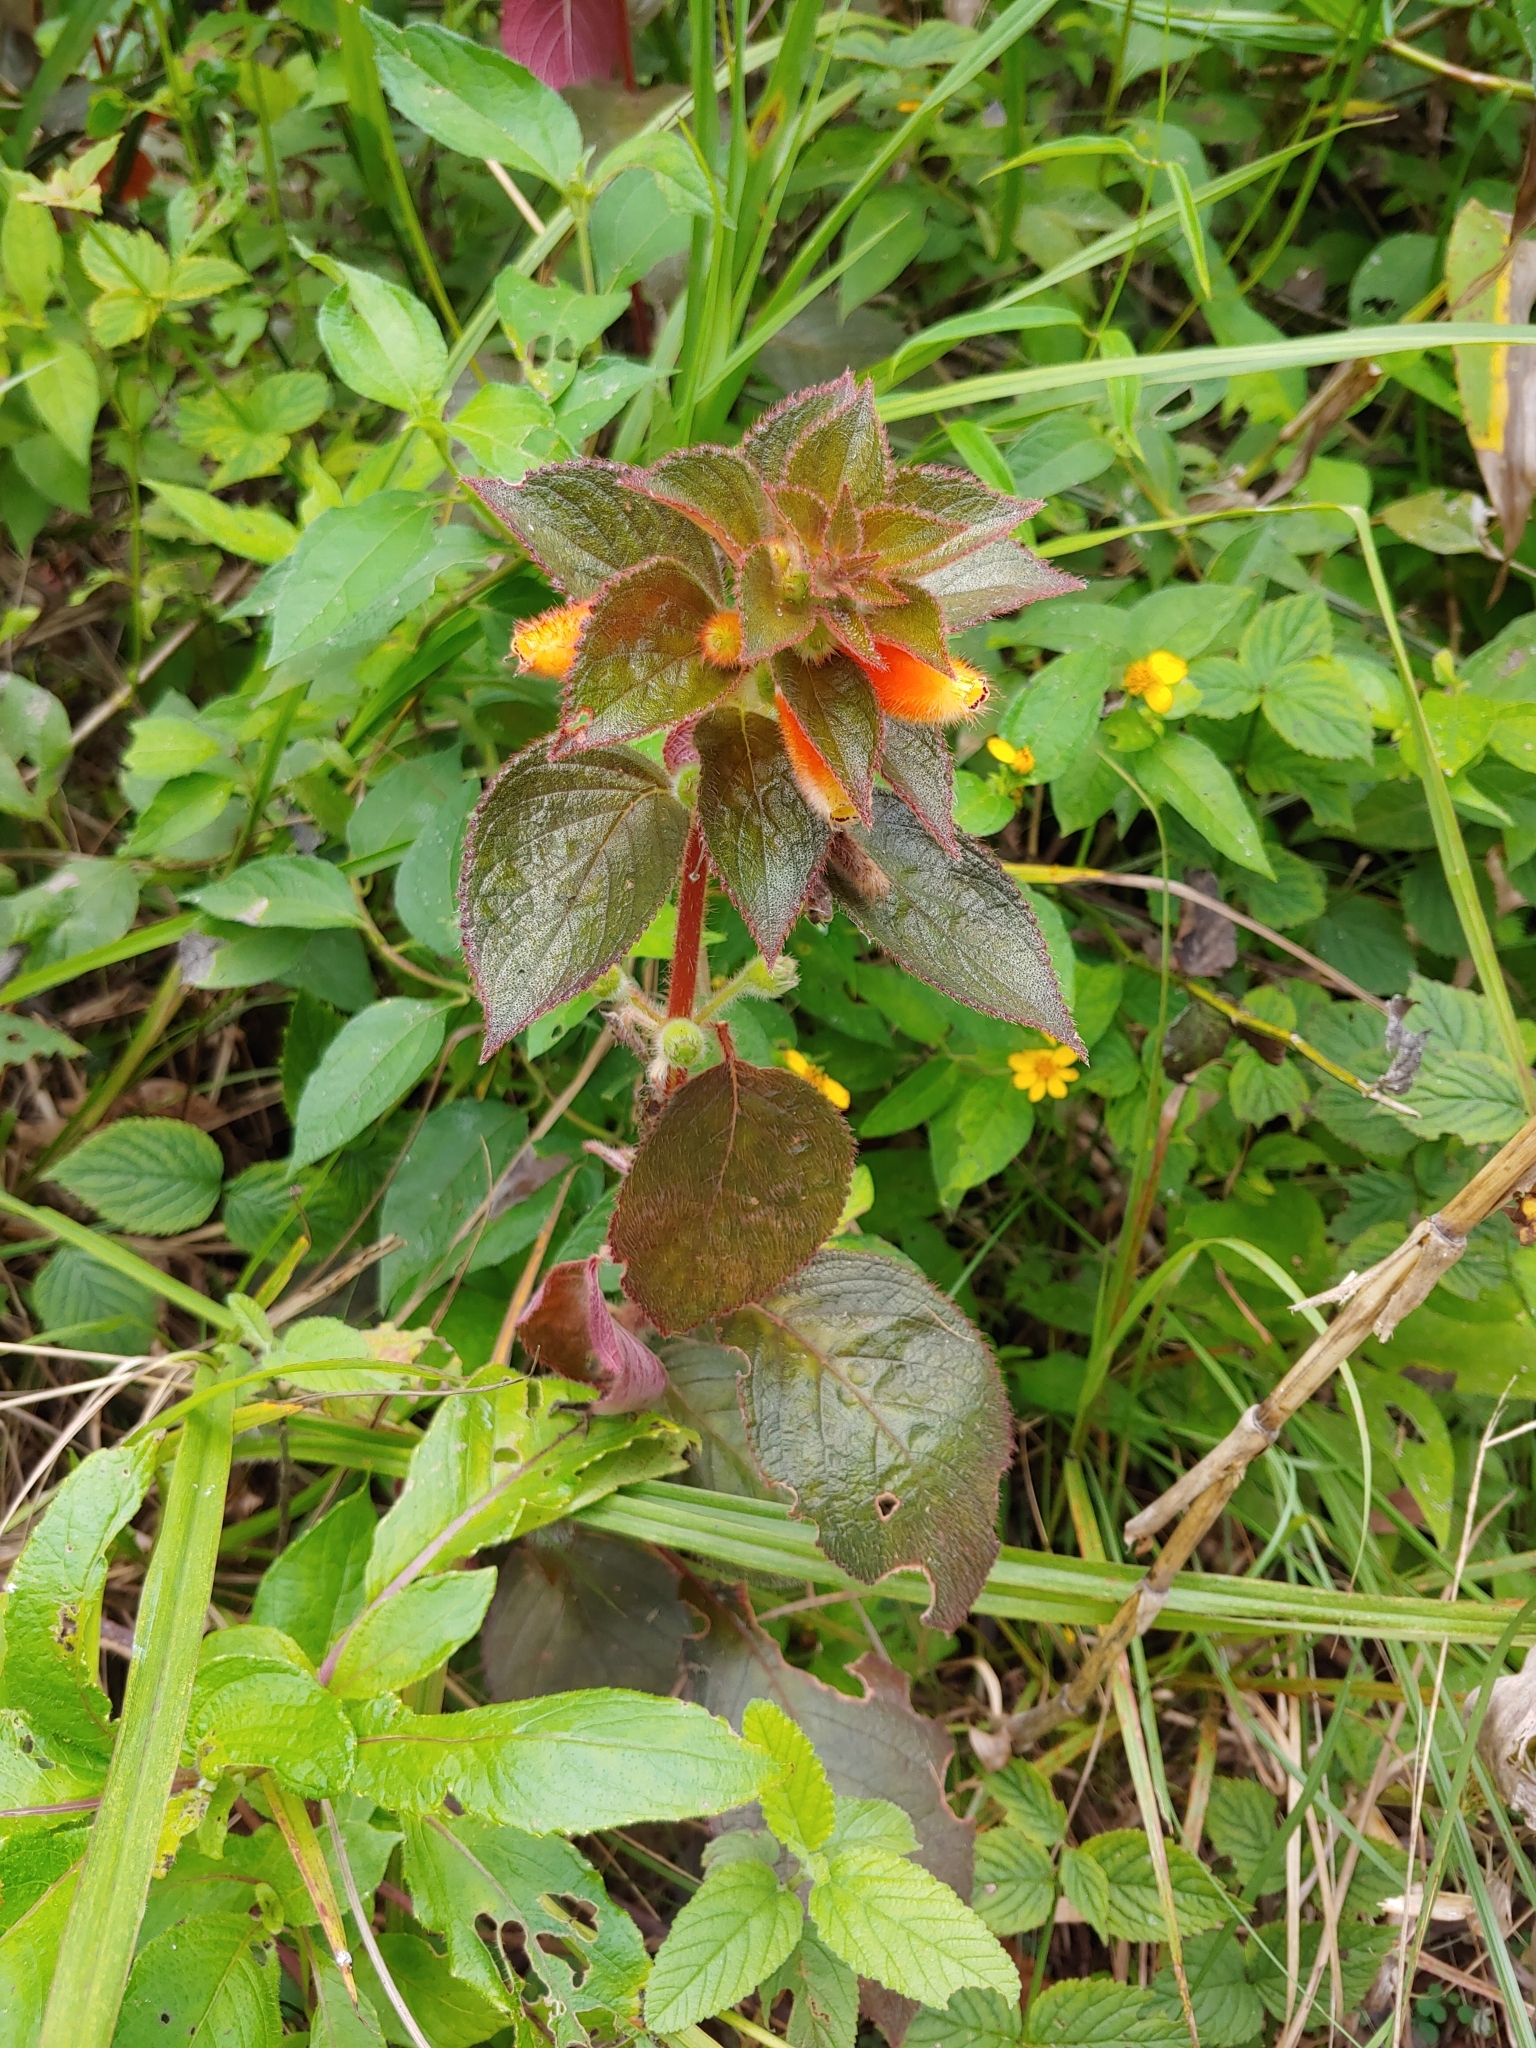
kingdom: Plantae
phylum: Tracheophyta
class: Magnoliopsida
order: Lamiales
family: Gesneriaceae
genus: Kohleria
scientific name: Kohleria tubiflora
